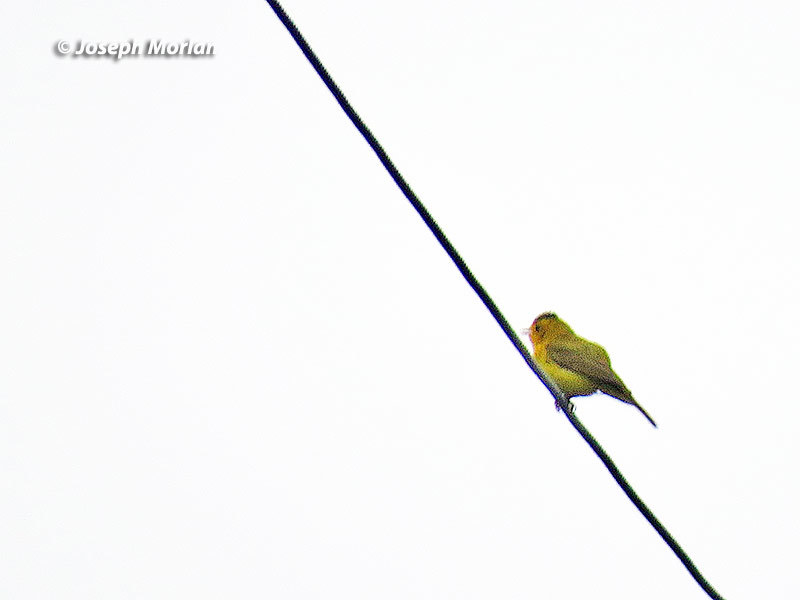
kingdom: Animalia
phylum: Chordata
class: Aves
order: Passeriformes
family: Parulidae
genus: Cardellina
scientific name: Cardellina pusilla
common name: Wilson's warbler
